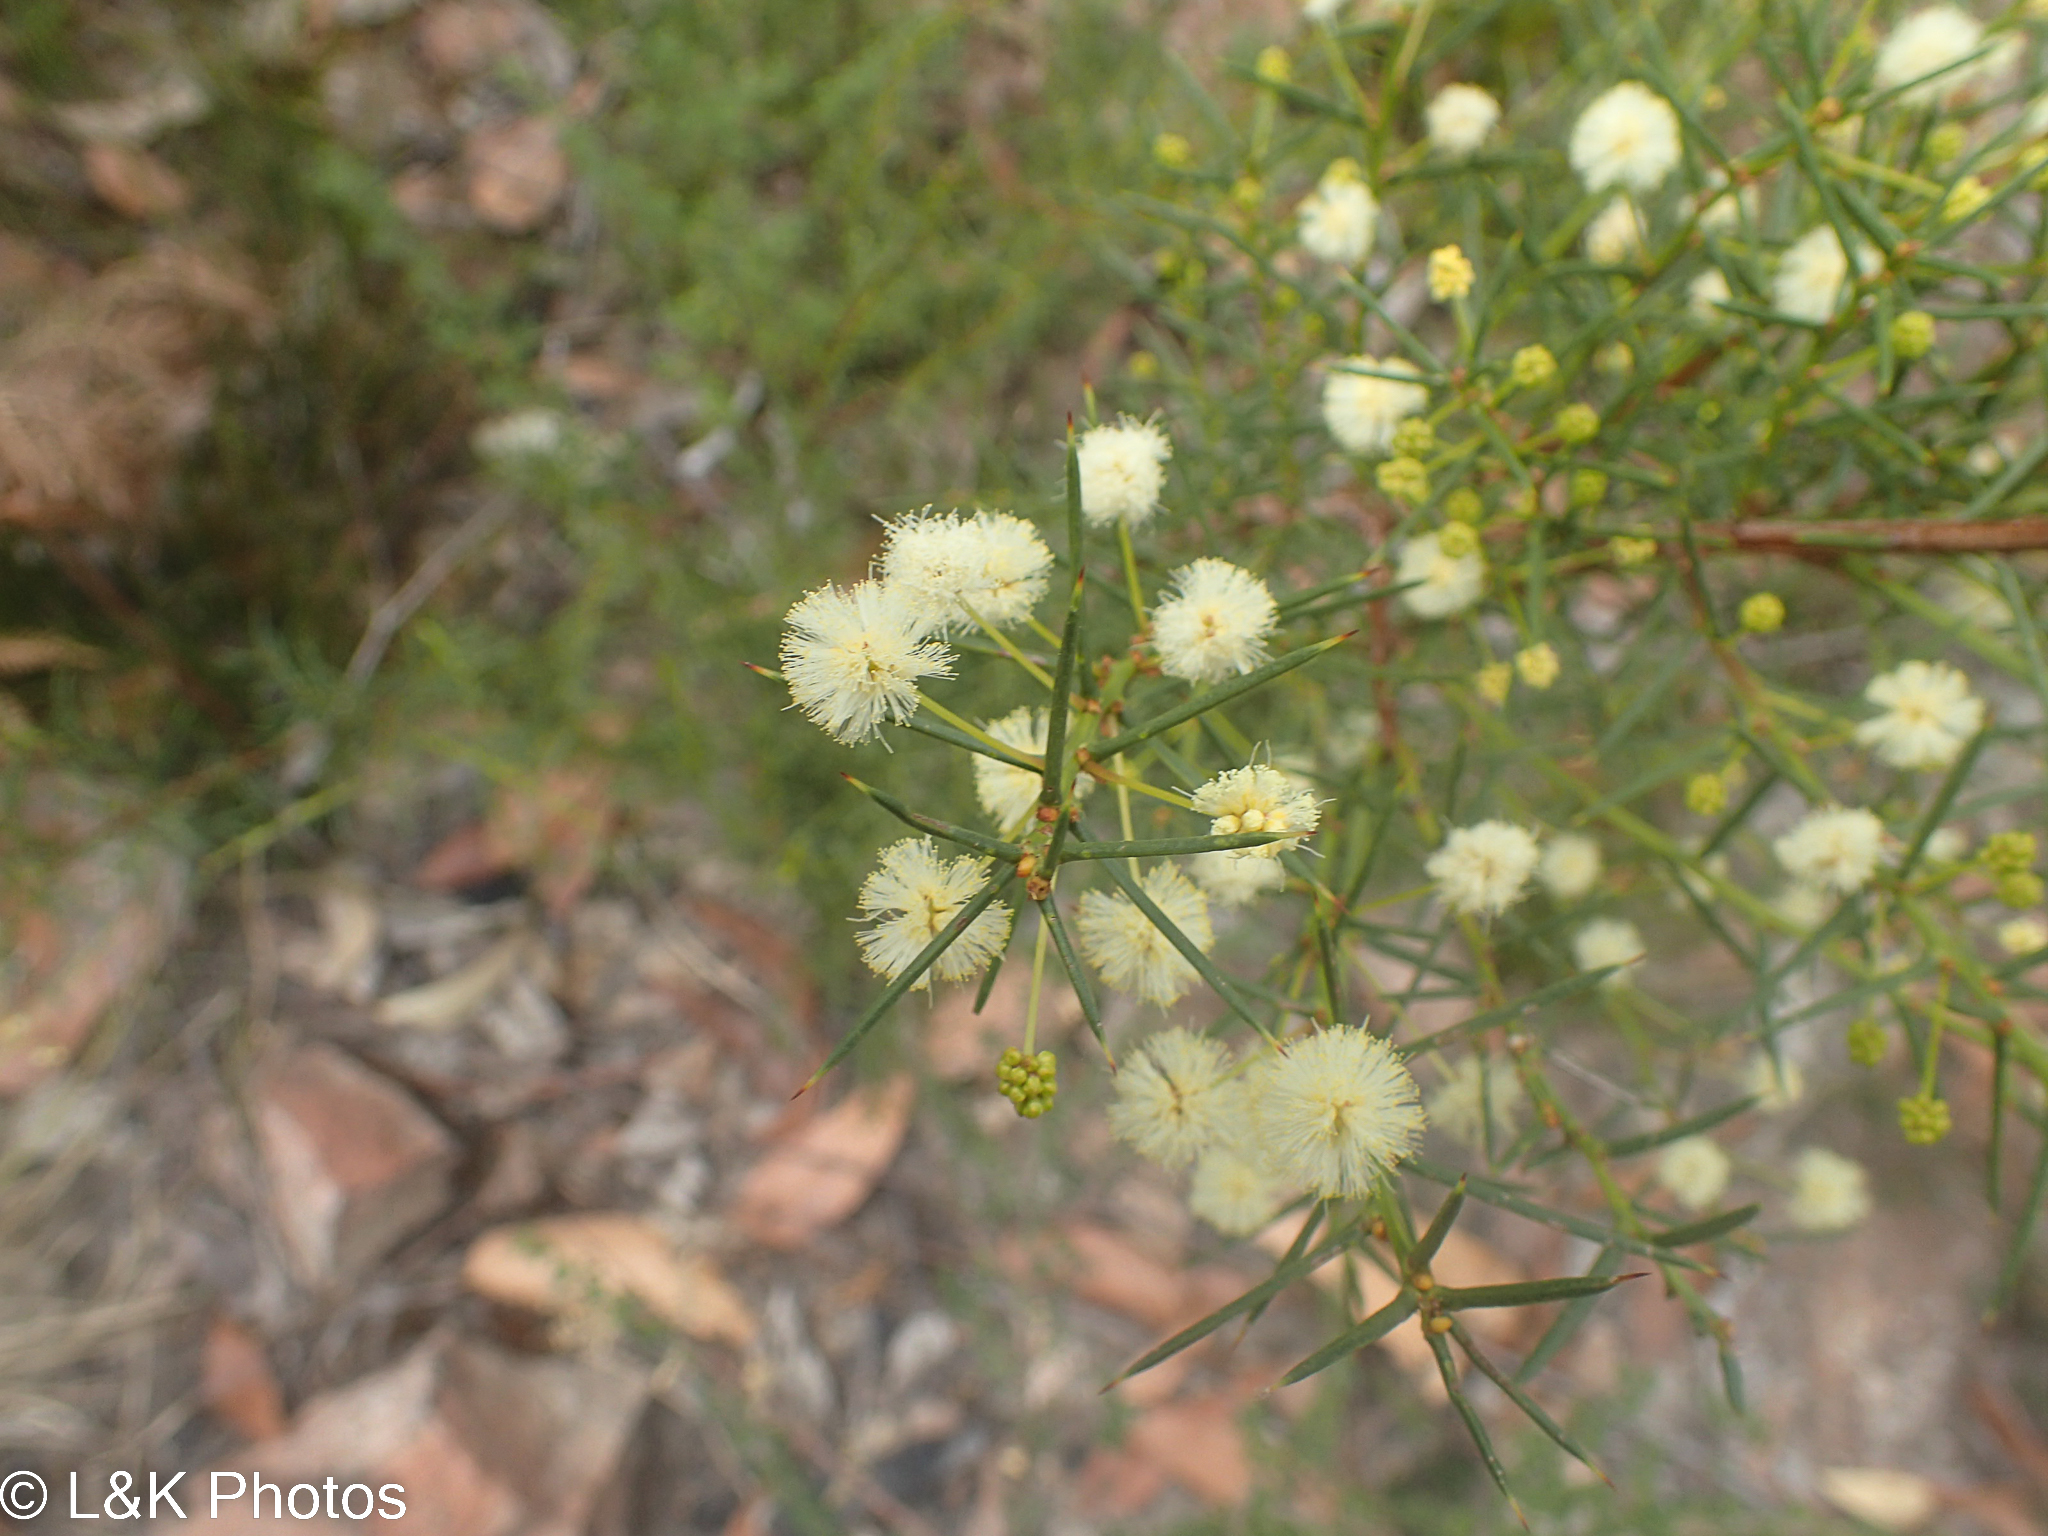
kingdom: Plantae
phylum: Tracheophyta
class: Magnoliopsida
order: Fabales
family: Fabaceae
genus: Acacia
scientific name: Acacia genistifolia
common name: Early wattle
